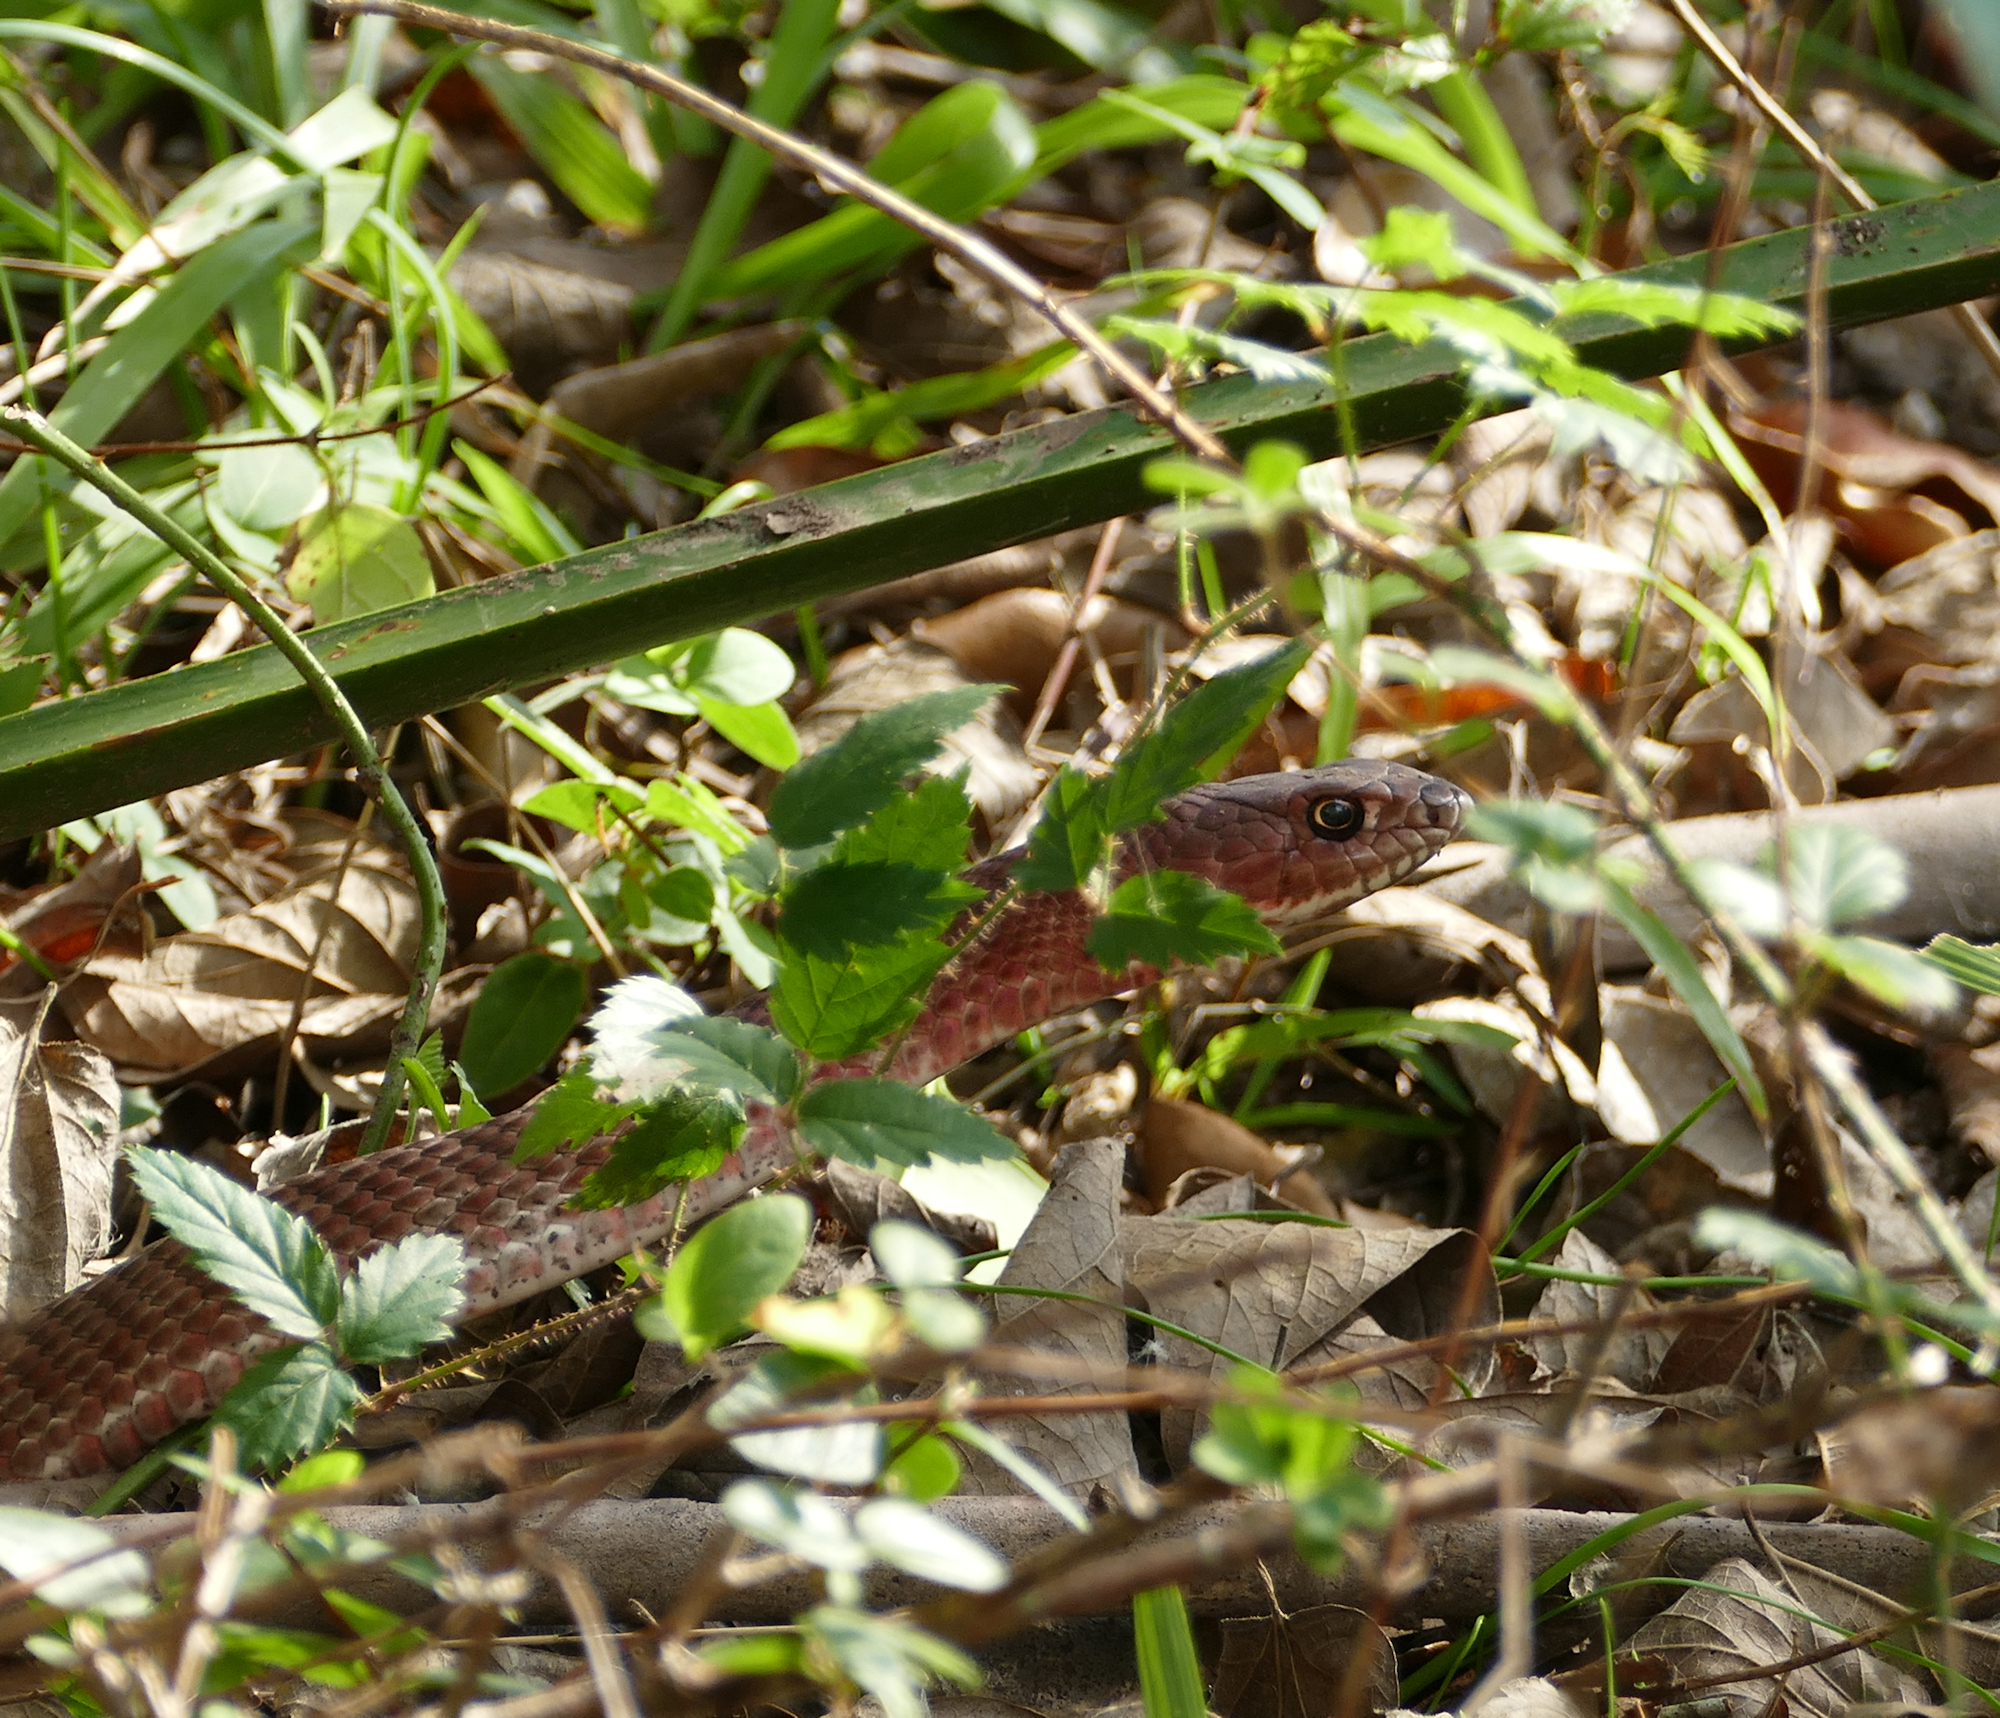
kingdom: Animalia
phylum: Chordata
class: Squamata
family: Colubridae
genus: Masticophis
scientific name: Masticophis flagellum
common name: Coachwhip
